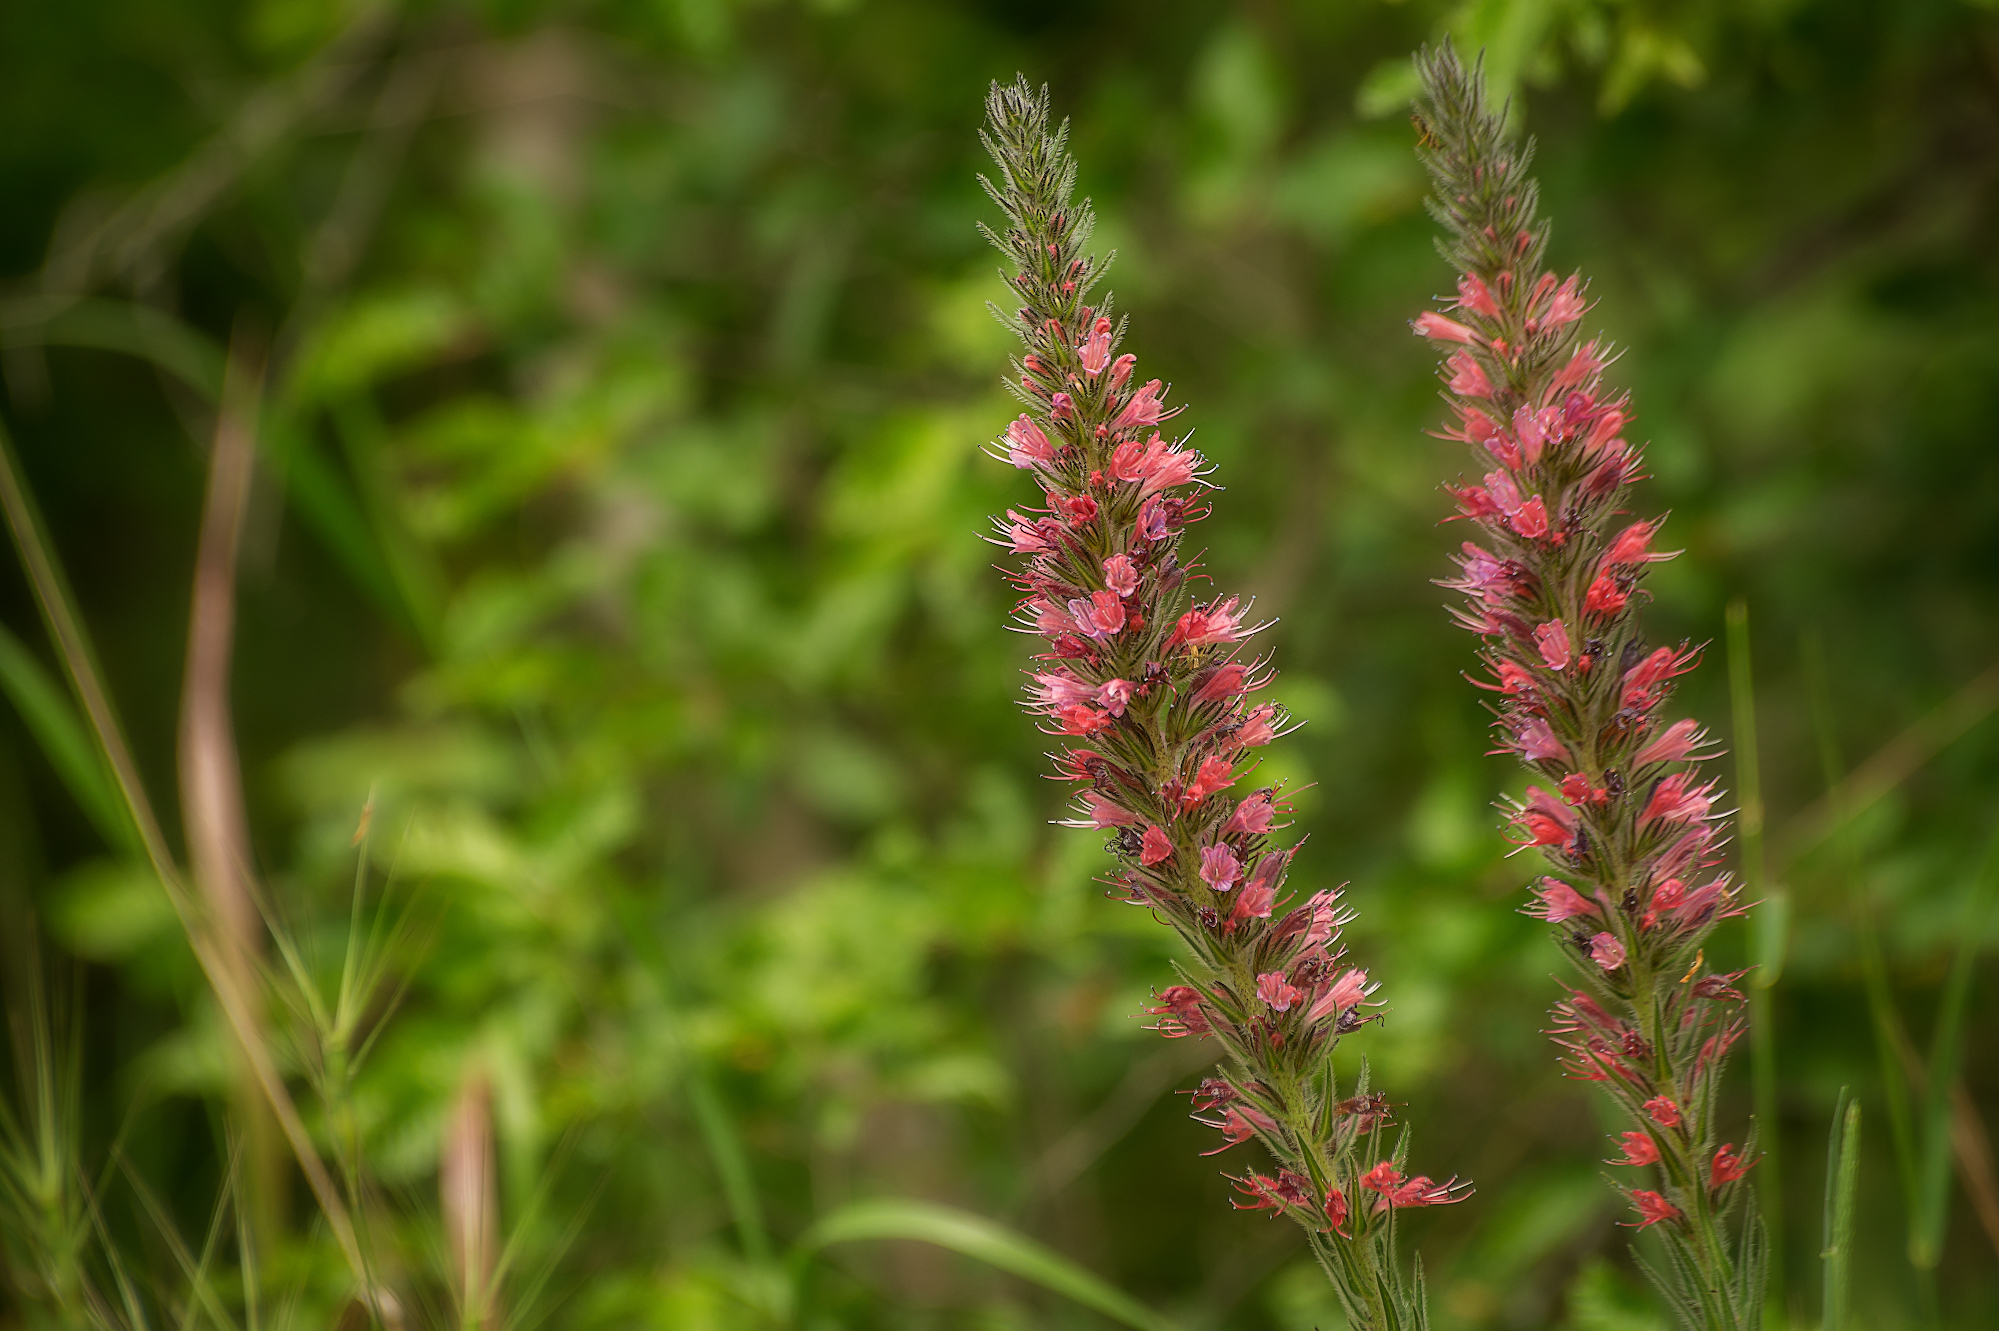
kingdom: Plantae
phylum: Tracheophyta
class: Magnoliopsida
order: Boraginales
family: Boraginaceae
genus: Pontechium
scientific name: Pontechium maculatum
